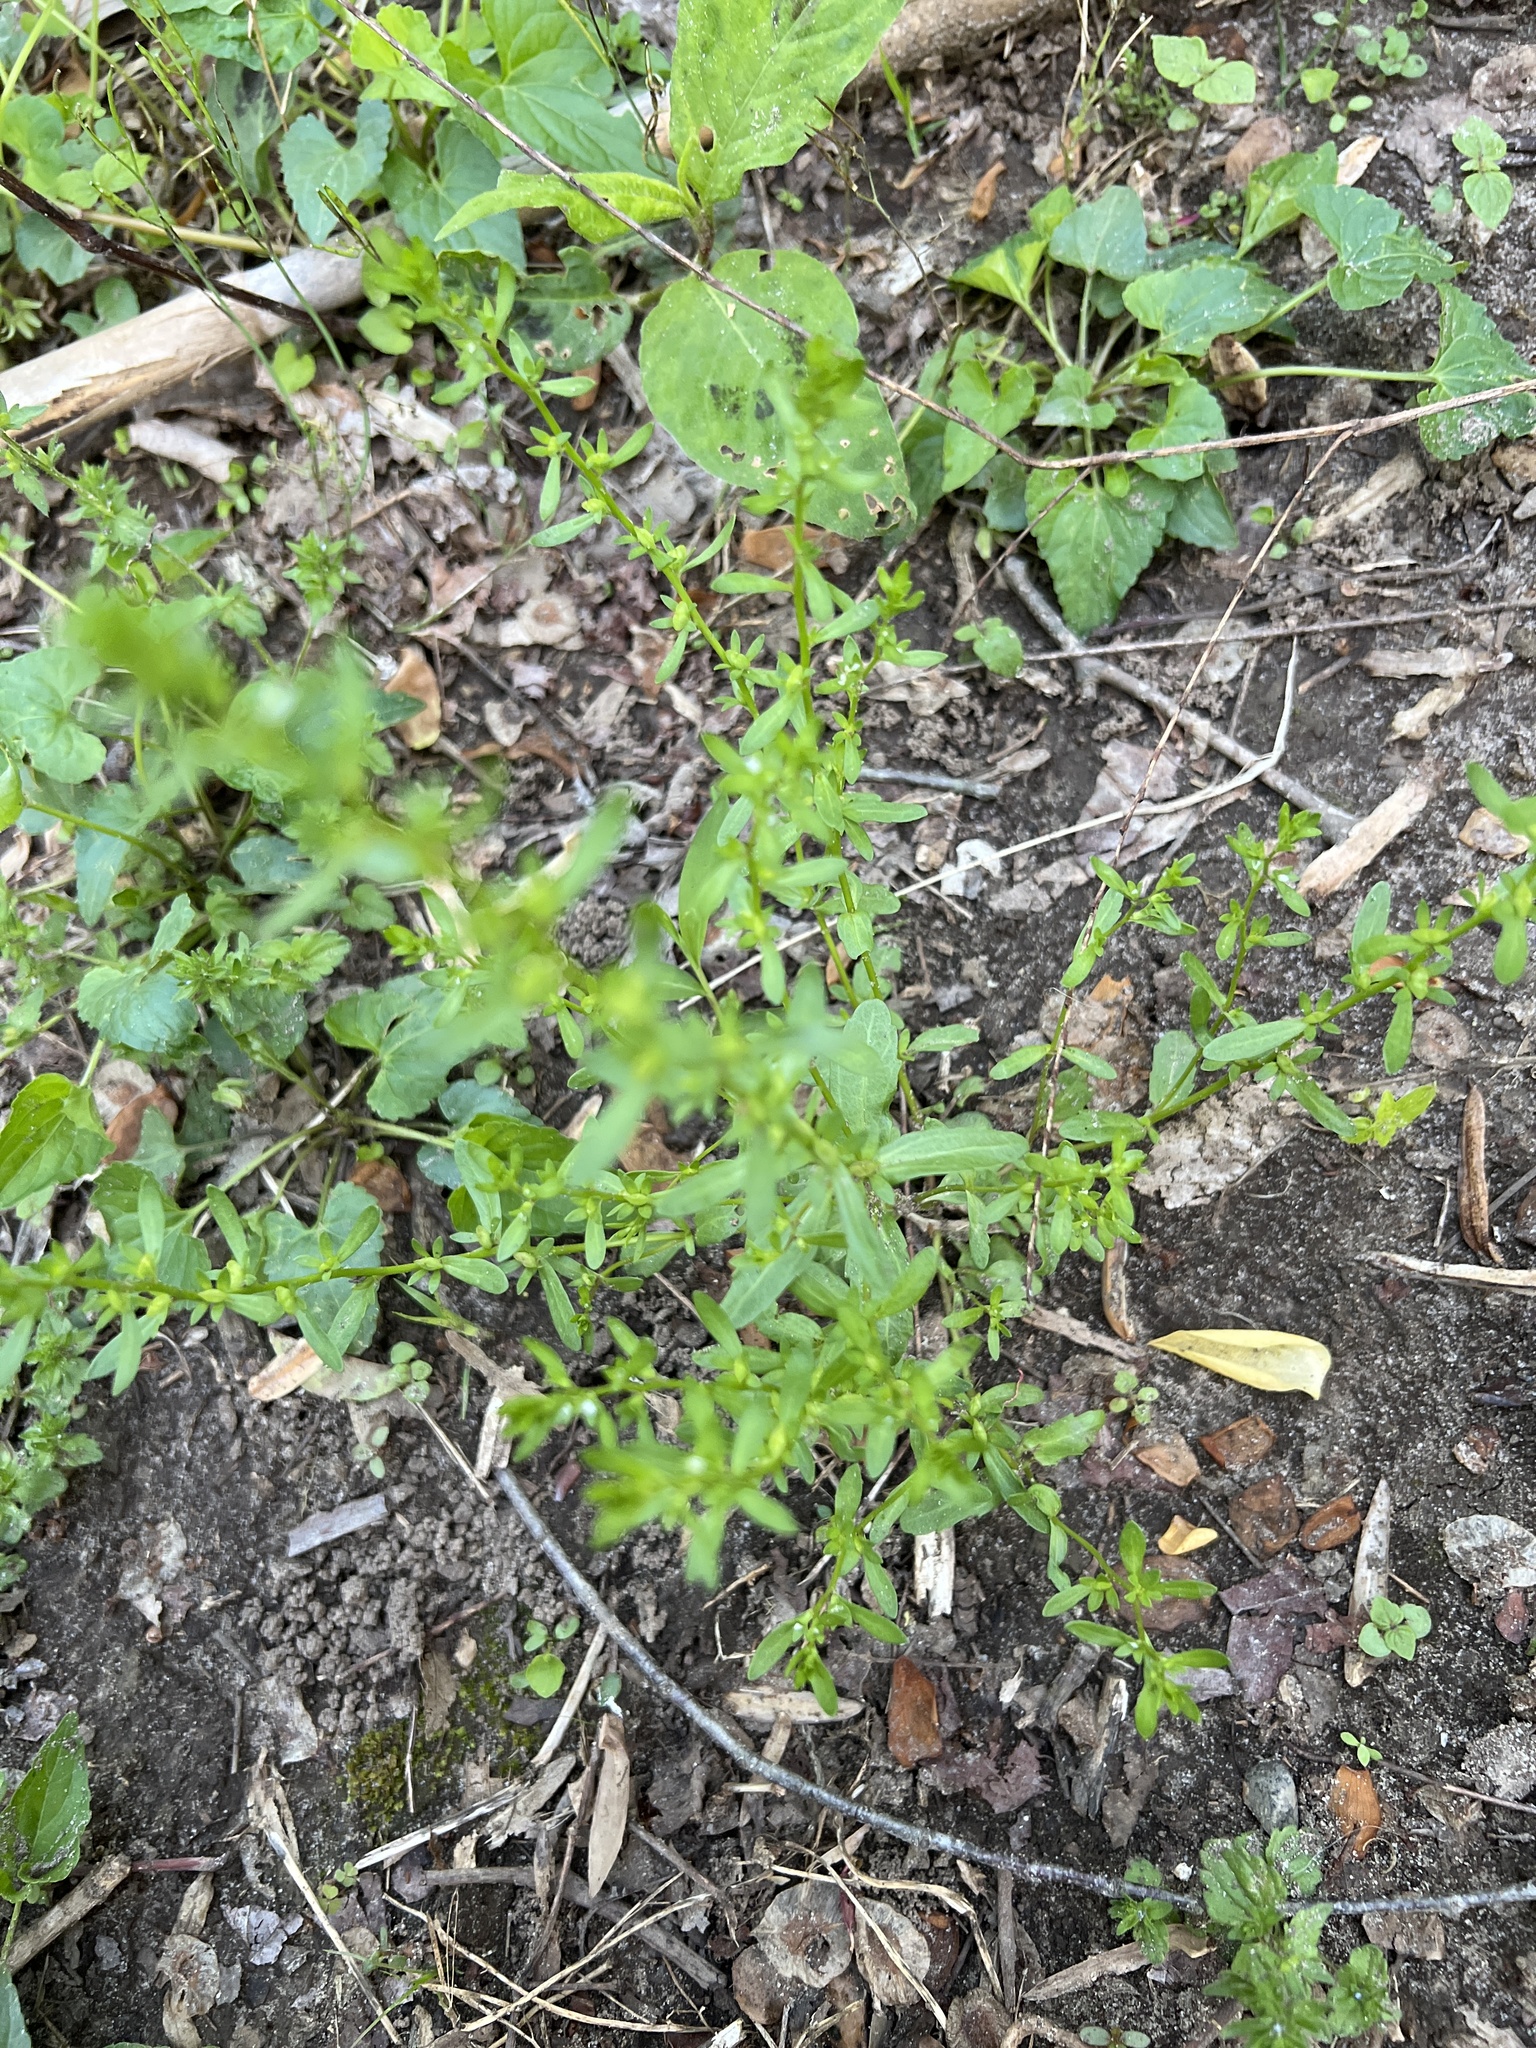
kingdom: Plantae
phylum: Tracheophyta
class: Magnoliopsida
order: Lamiales
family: Plantaginaceae
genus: Veronica
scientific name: Veronica peregrina
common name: Neckweed
